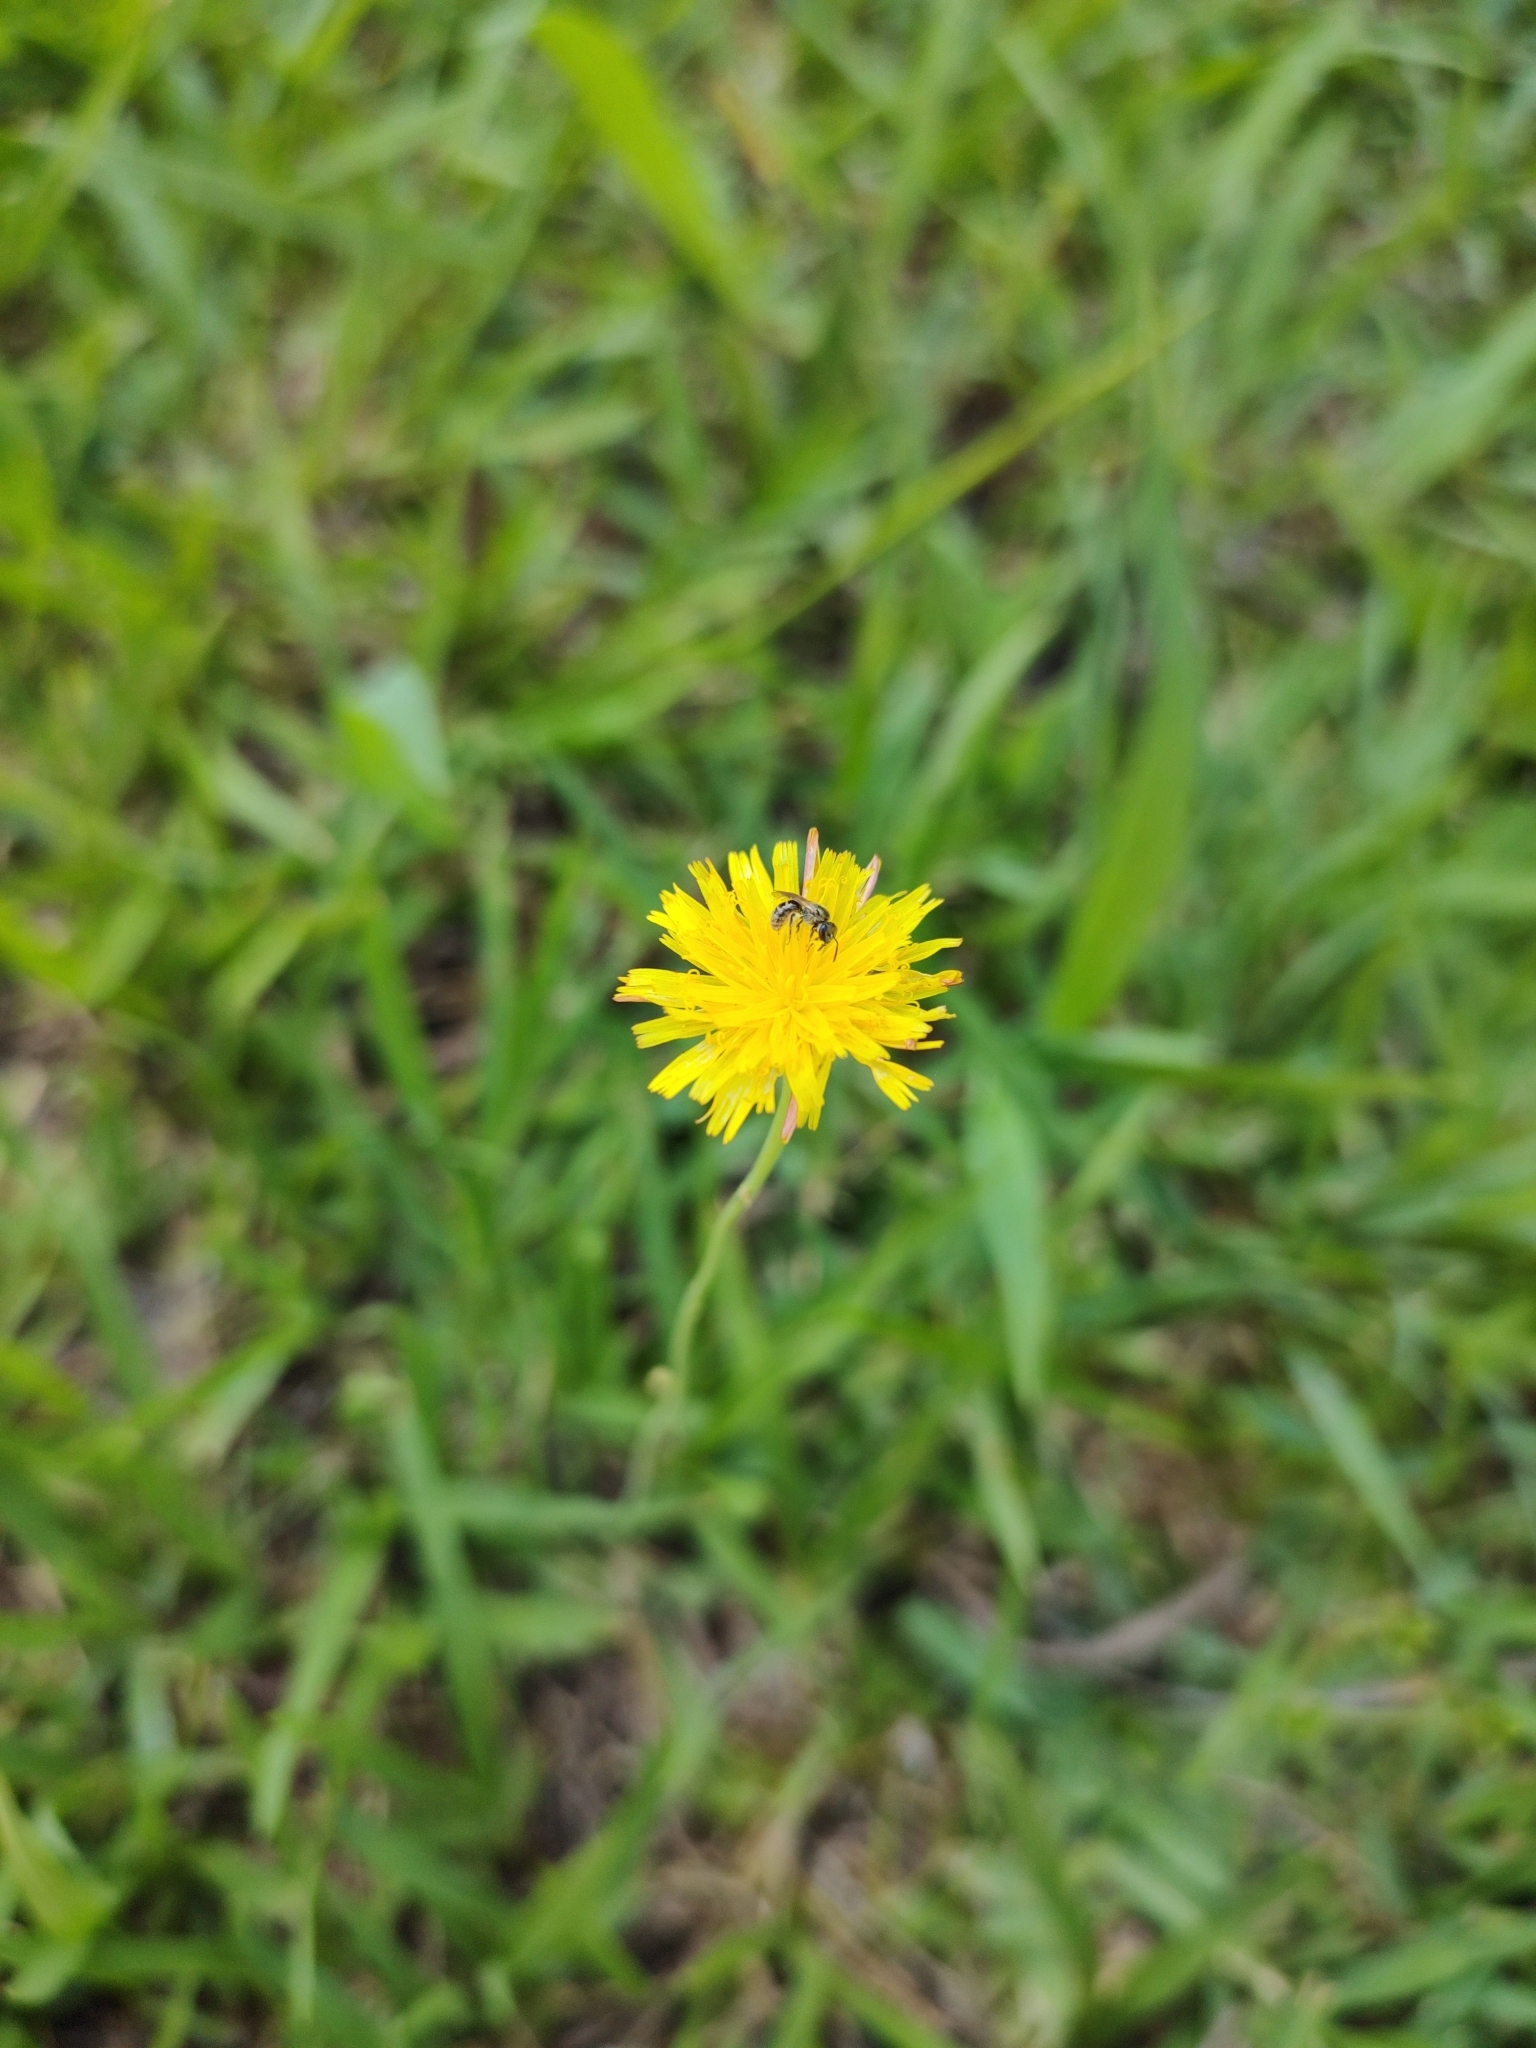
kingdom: Plantae
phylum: Tracheophyta
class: Magnoliopsida
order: Asterales
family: Asteraceae
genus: Hypochaeris
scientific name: Hypochaeris radicata
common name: Flatweed
